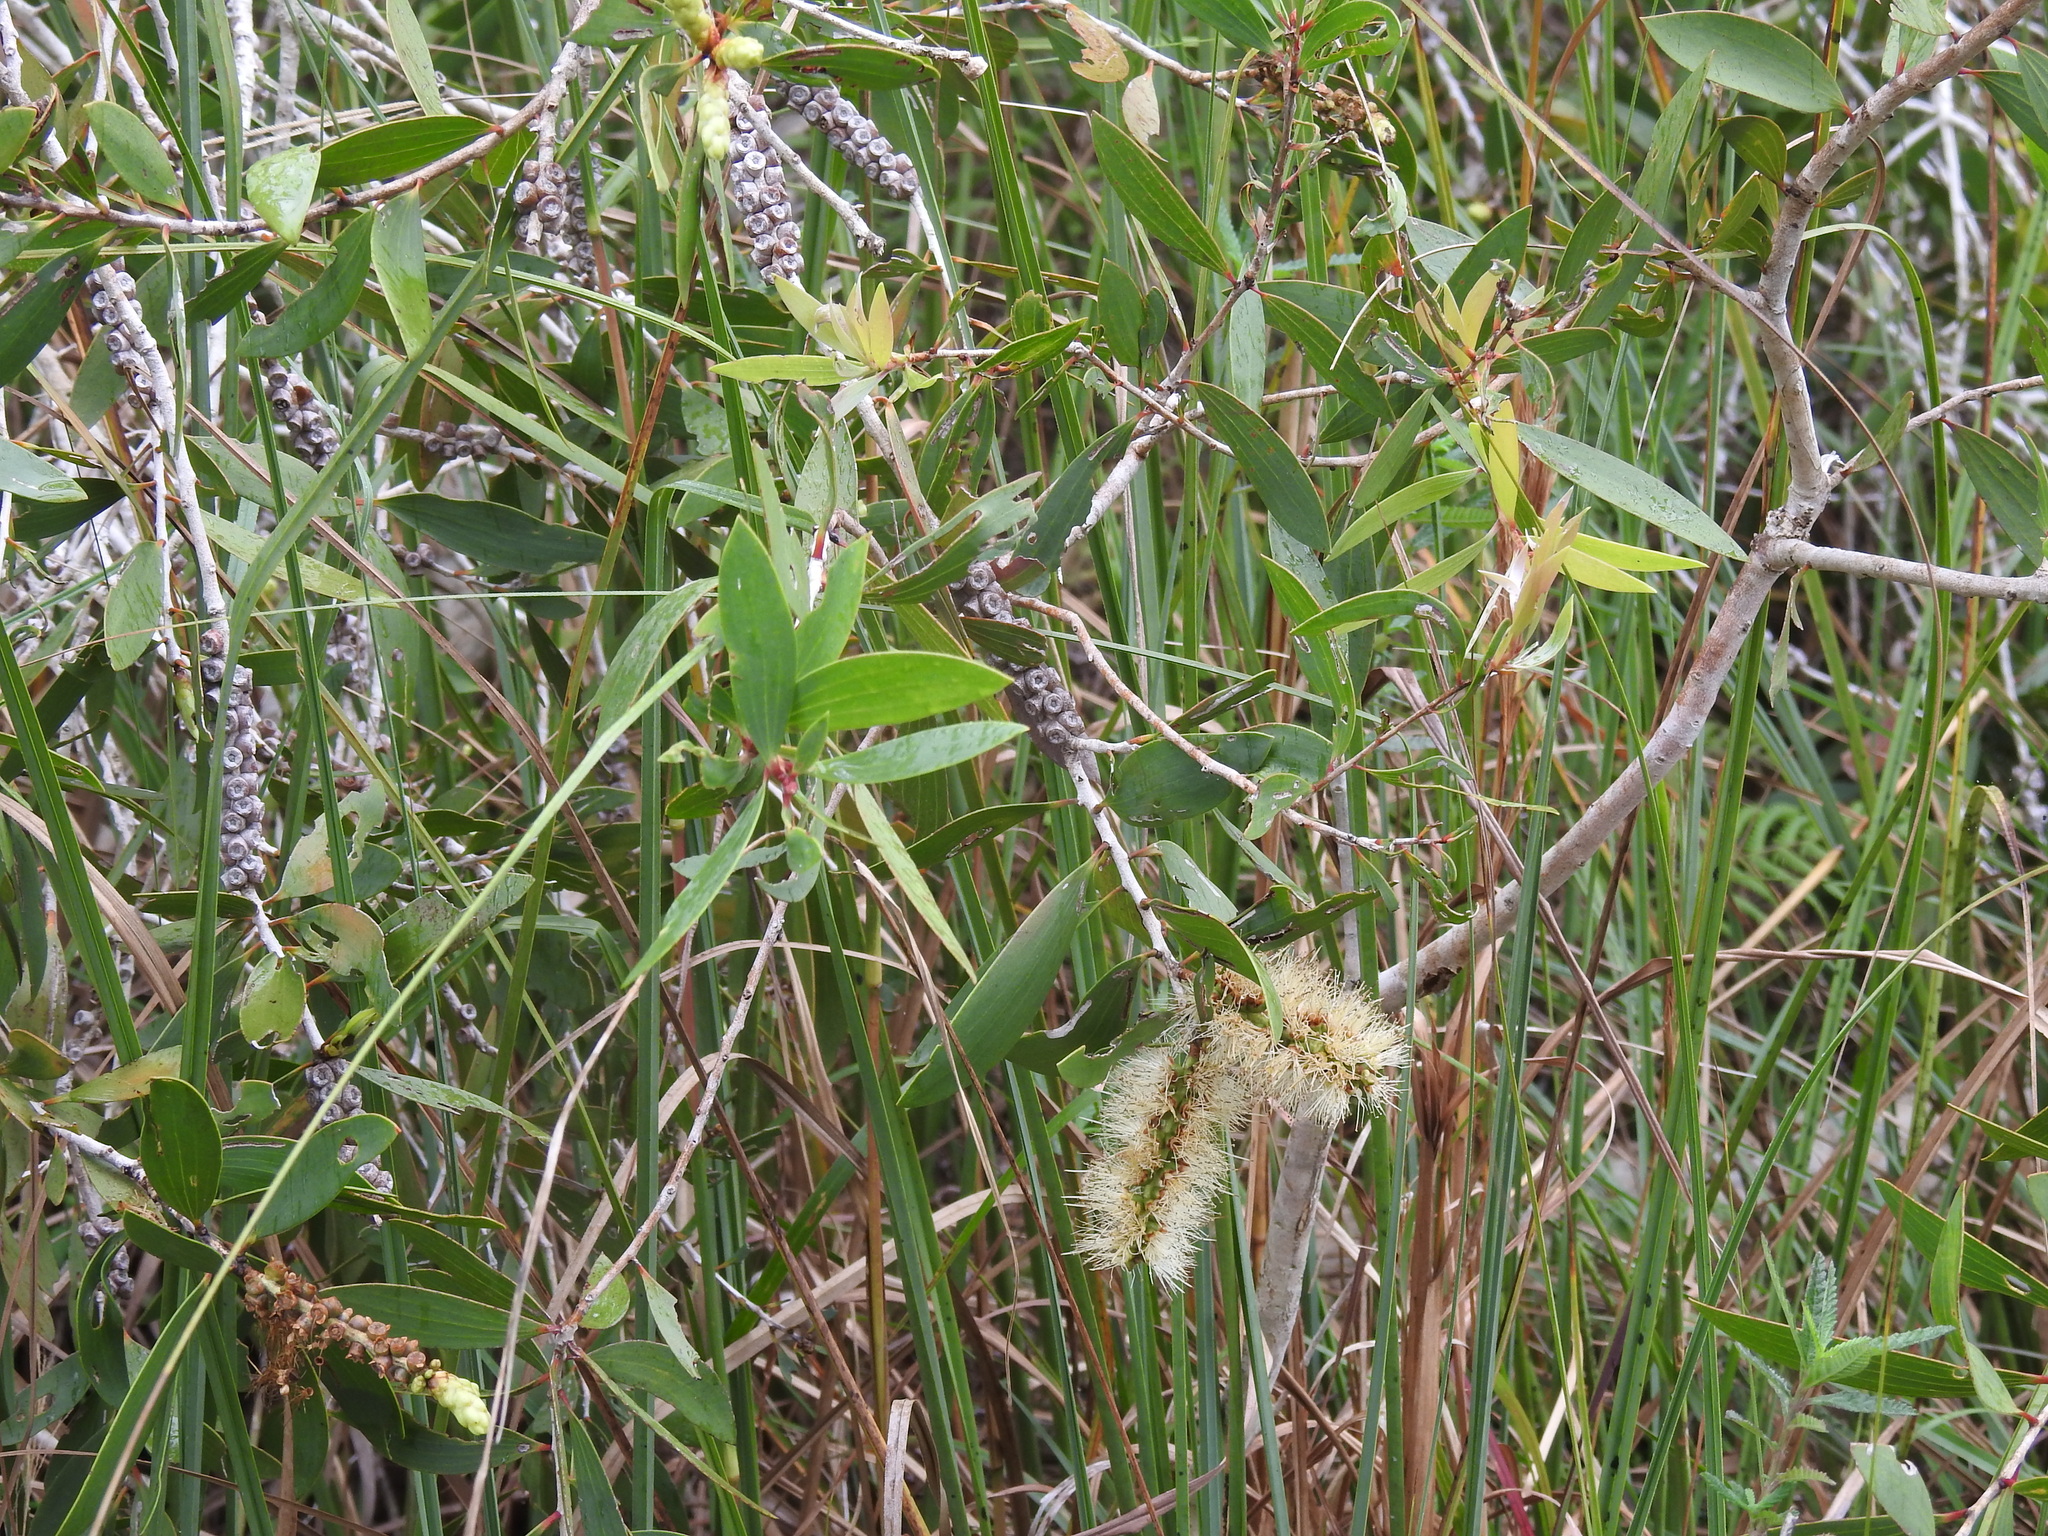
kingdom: Plantae
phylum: Tracheophyta
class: Magnoliopsida
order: Myrtales
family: Myrtaceae
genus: Melaleuca
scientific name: Melaleuca quinquenervia
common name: Punktree
